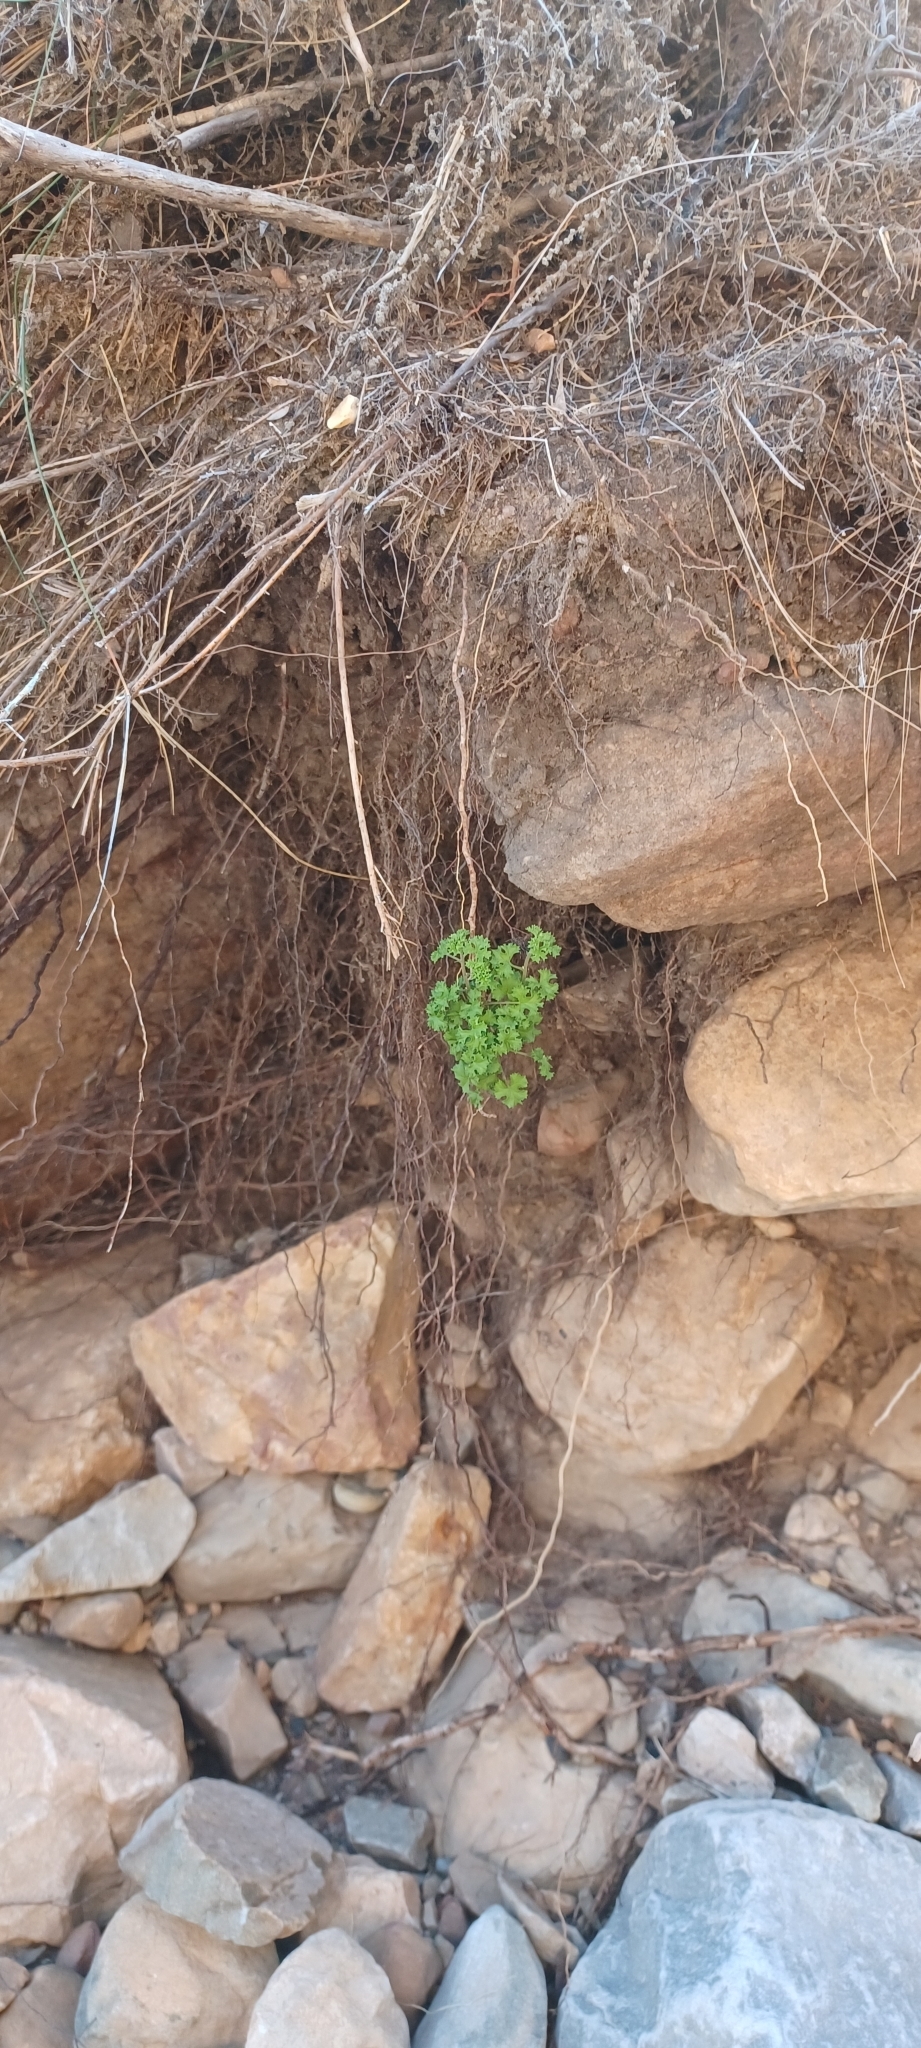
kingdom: Plantae
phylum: Tracheophyta
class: Magnoliopsida
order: Geraniales
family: Geraniaceae
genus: Pelargonium
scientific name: Pelargonium crispum
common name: Crisped-leaf pelargonium
